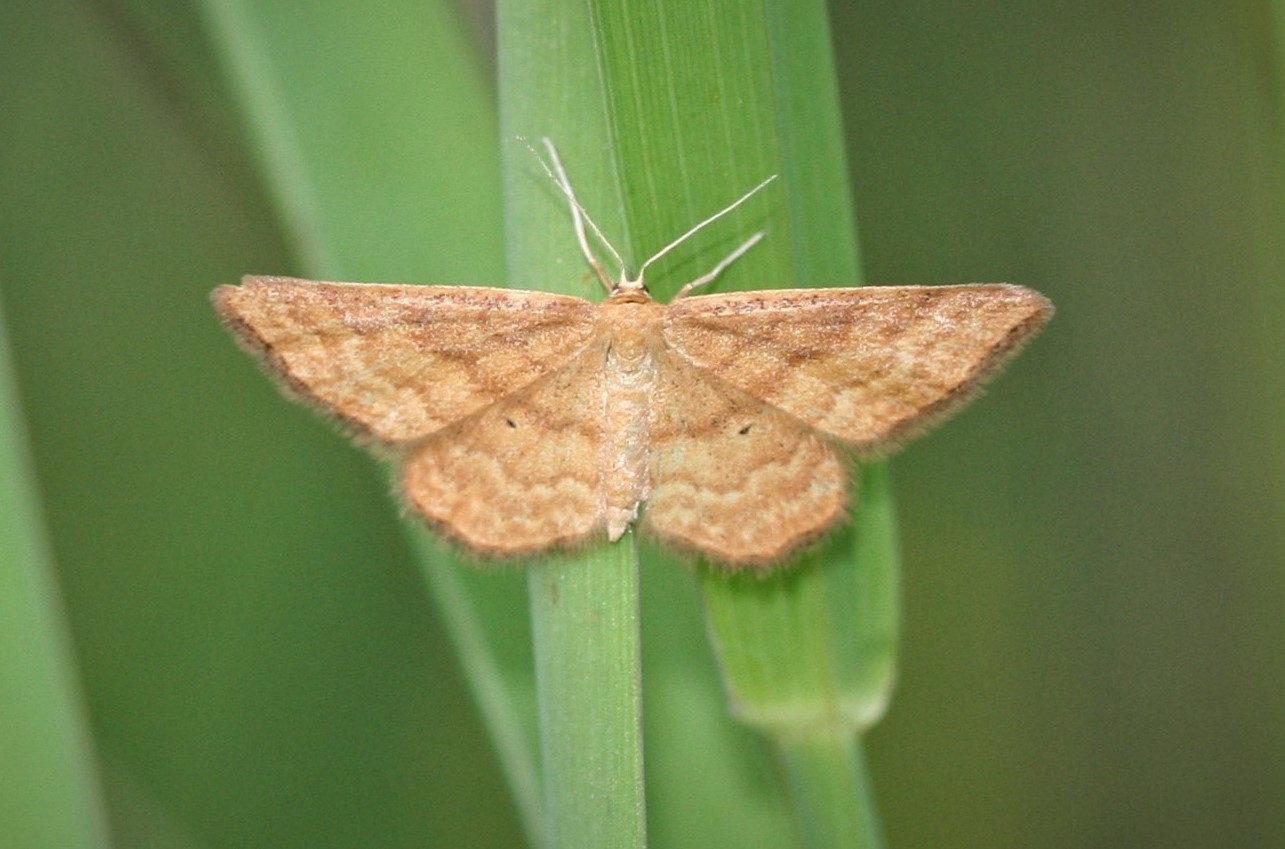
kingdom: Animalia
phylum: Arthropoda
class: Insecta
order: Lepidoptera
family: Geometridae
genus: Idaea
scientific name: Idaea serpentata
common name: Ochraceous wave
